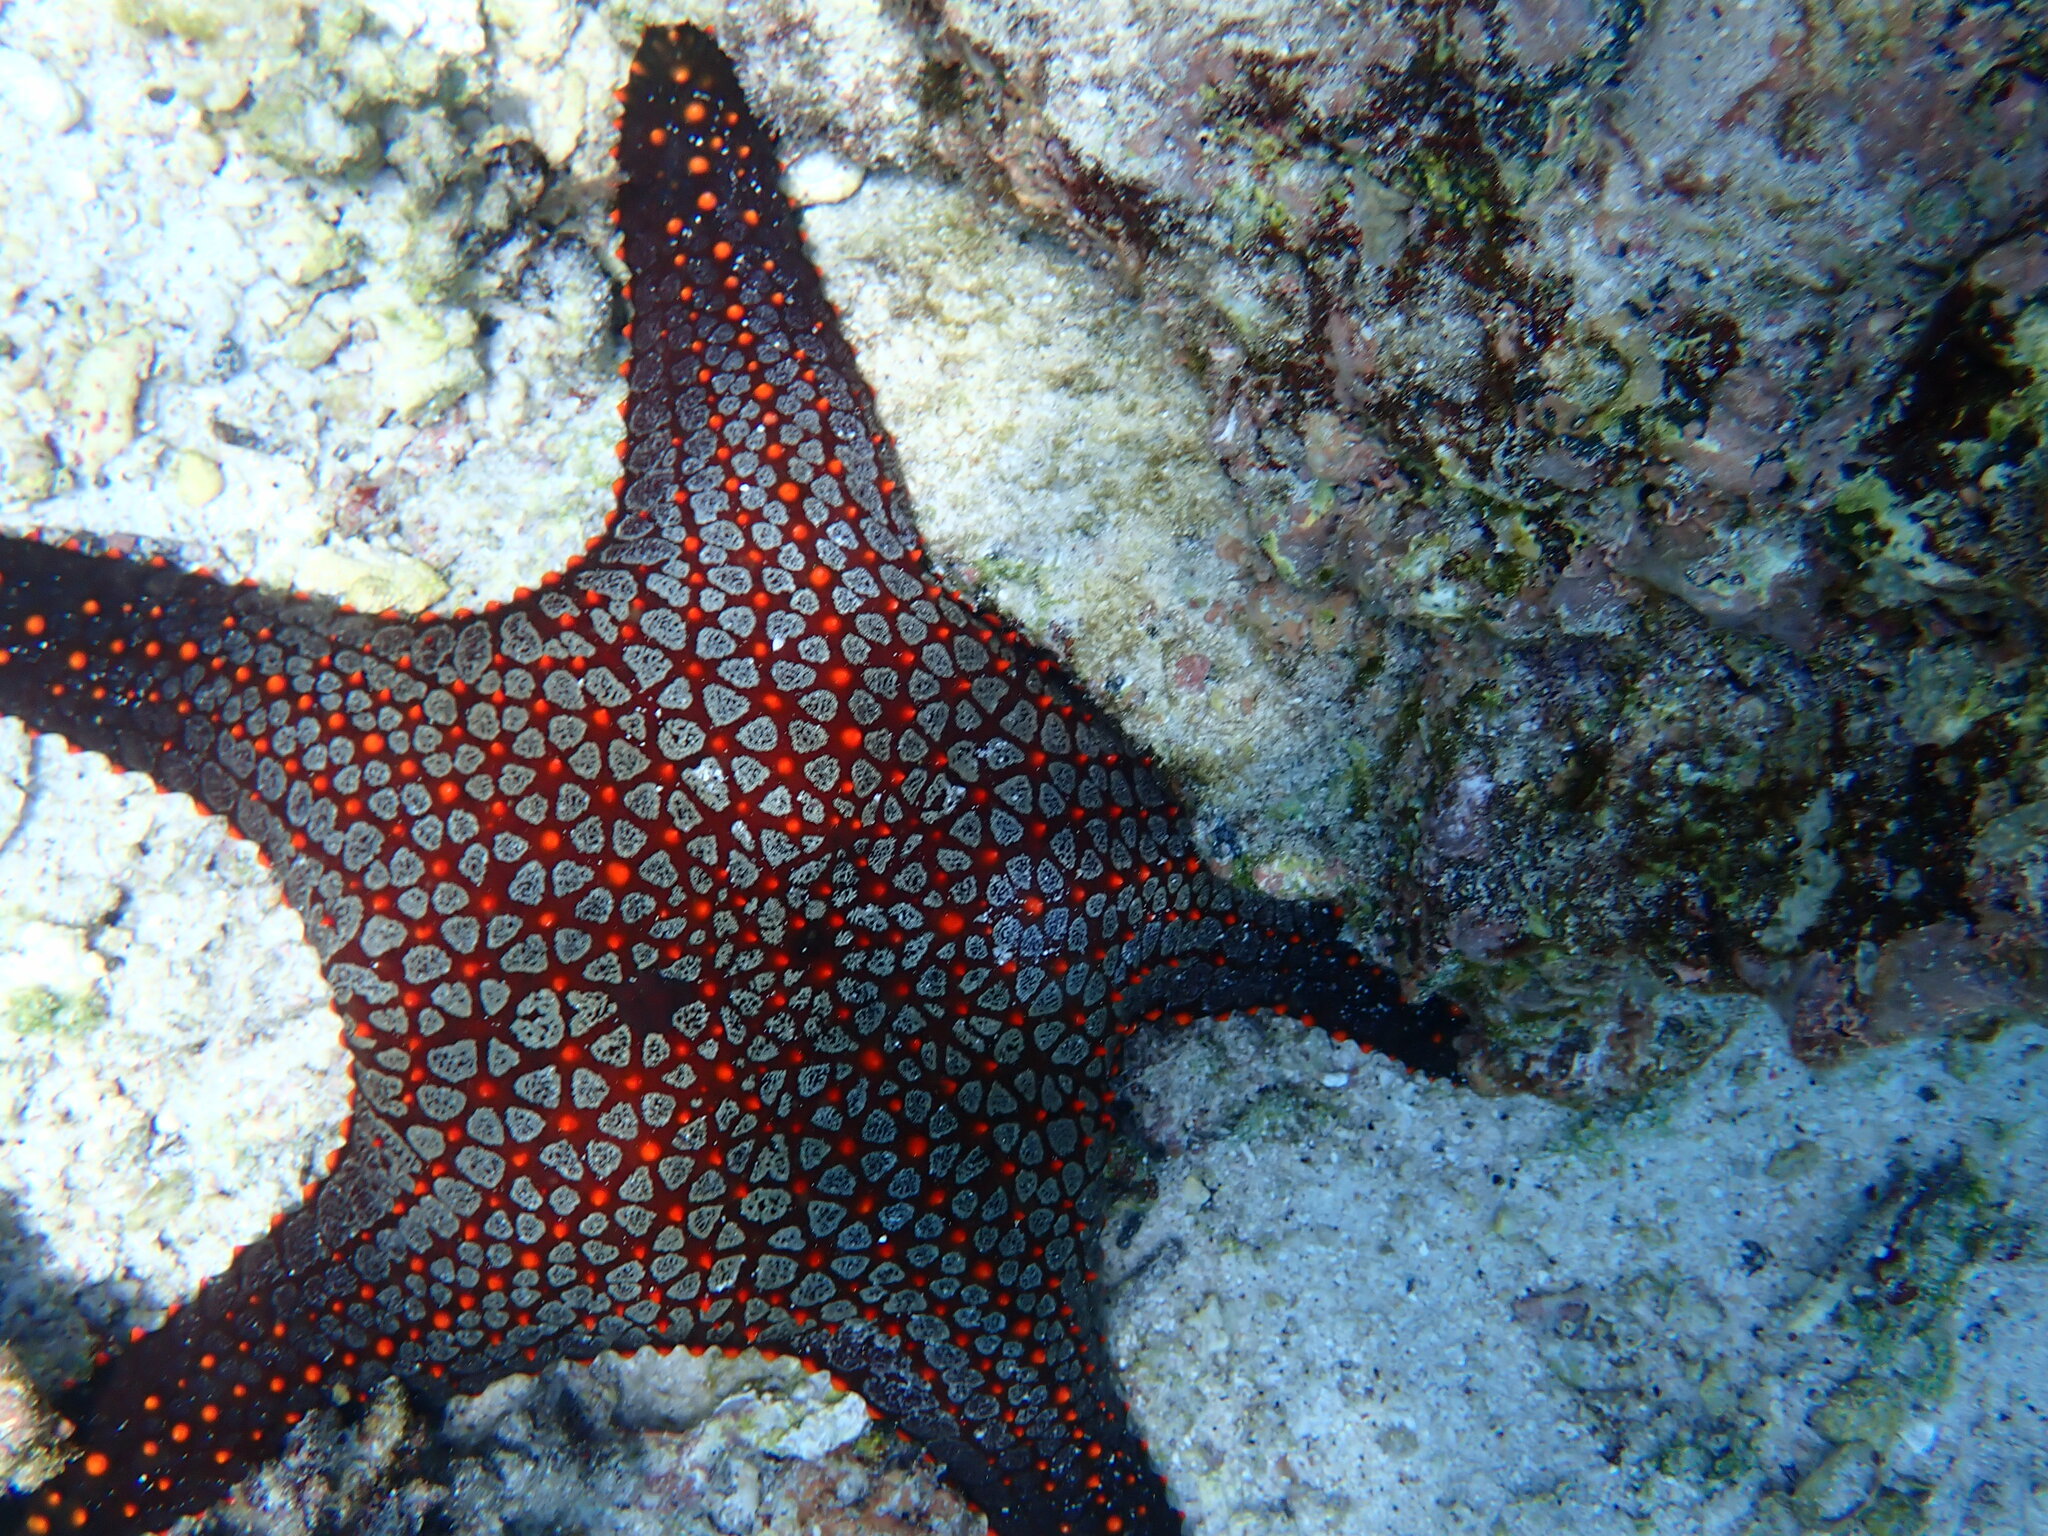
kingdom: Animalia
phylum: Echinodermata
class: Asteroidea
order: Valvatida
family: Oreasteridae
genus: Pentaceraster
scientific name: Pentaceraster cumingi
